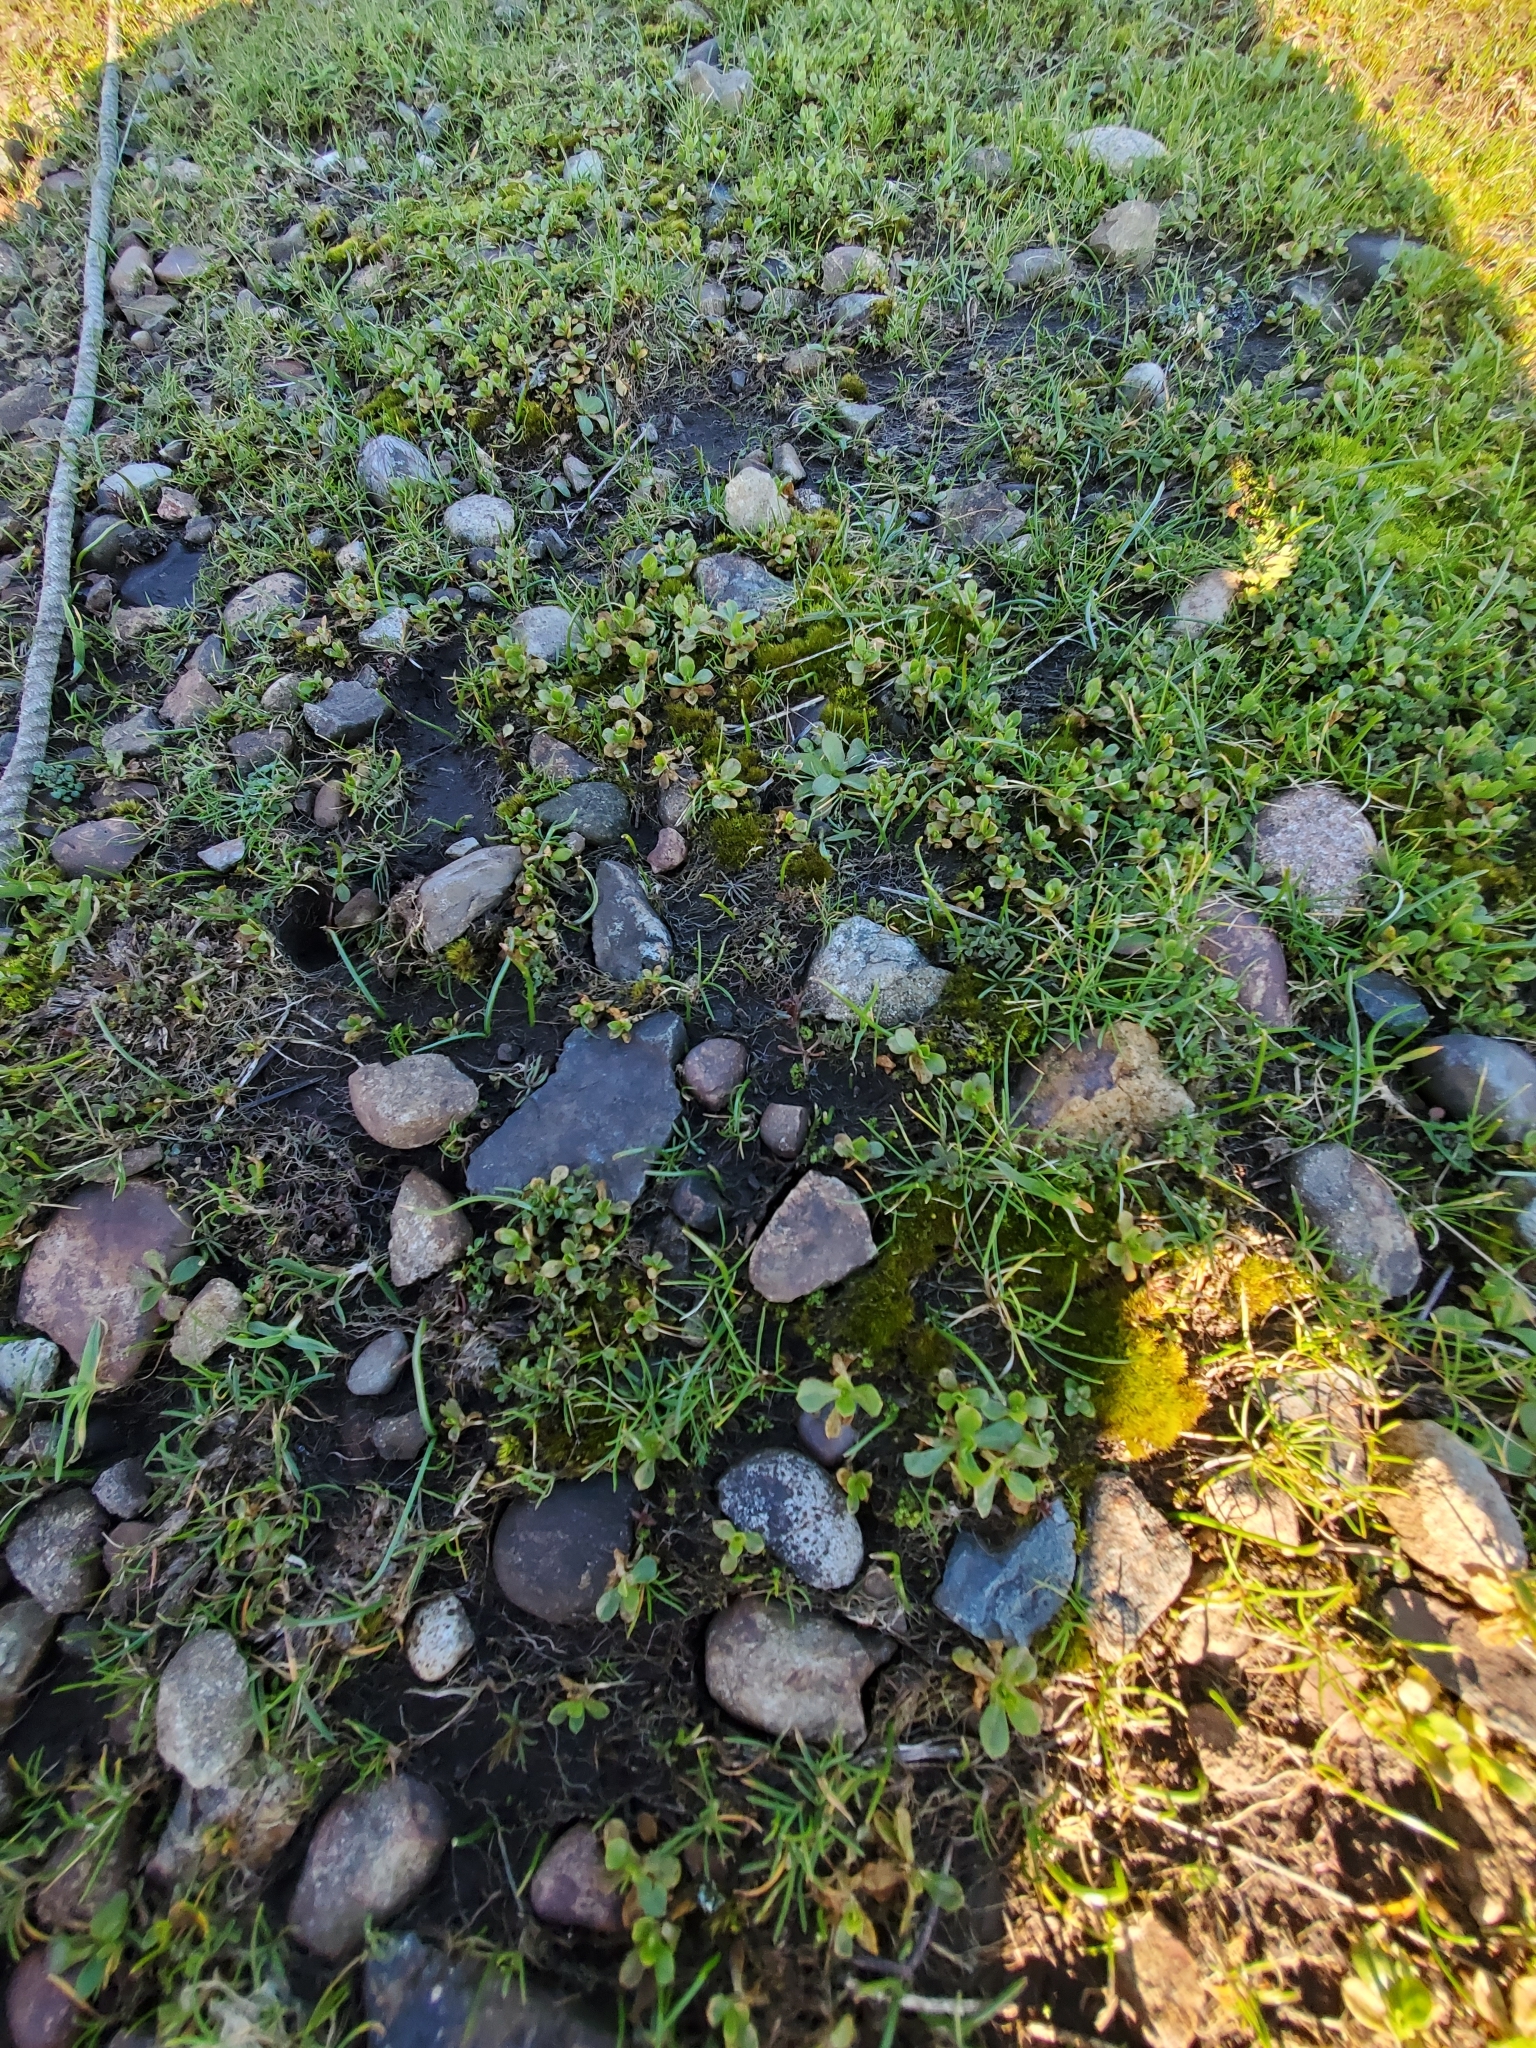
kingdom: Plantae
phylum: Marchantiophyta
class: Marchantiopsida
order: Sphaerocarpales
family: Sphaerocarpaceae
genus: Sphaerocarpos
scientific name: Sphaerocarpos texanus
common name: Texas balloonwort
